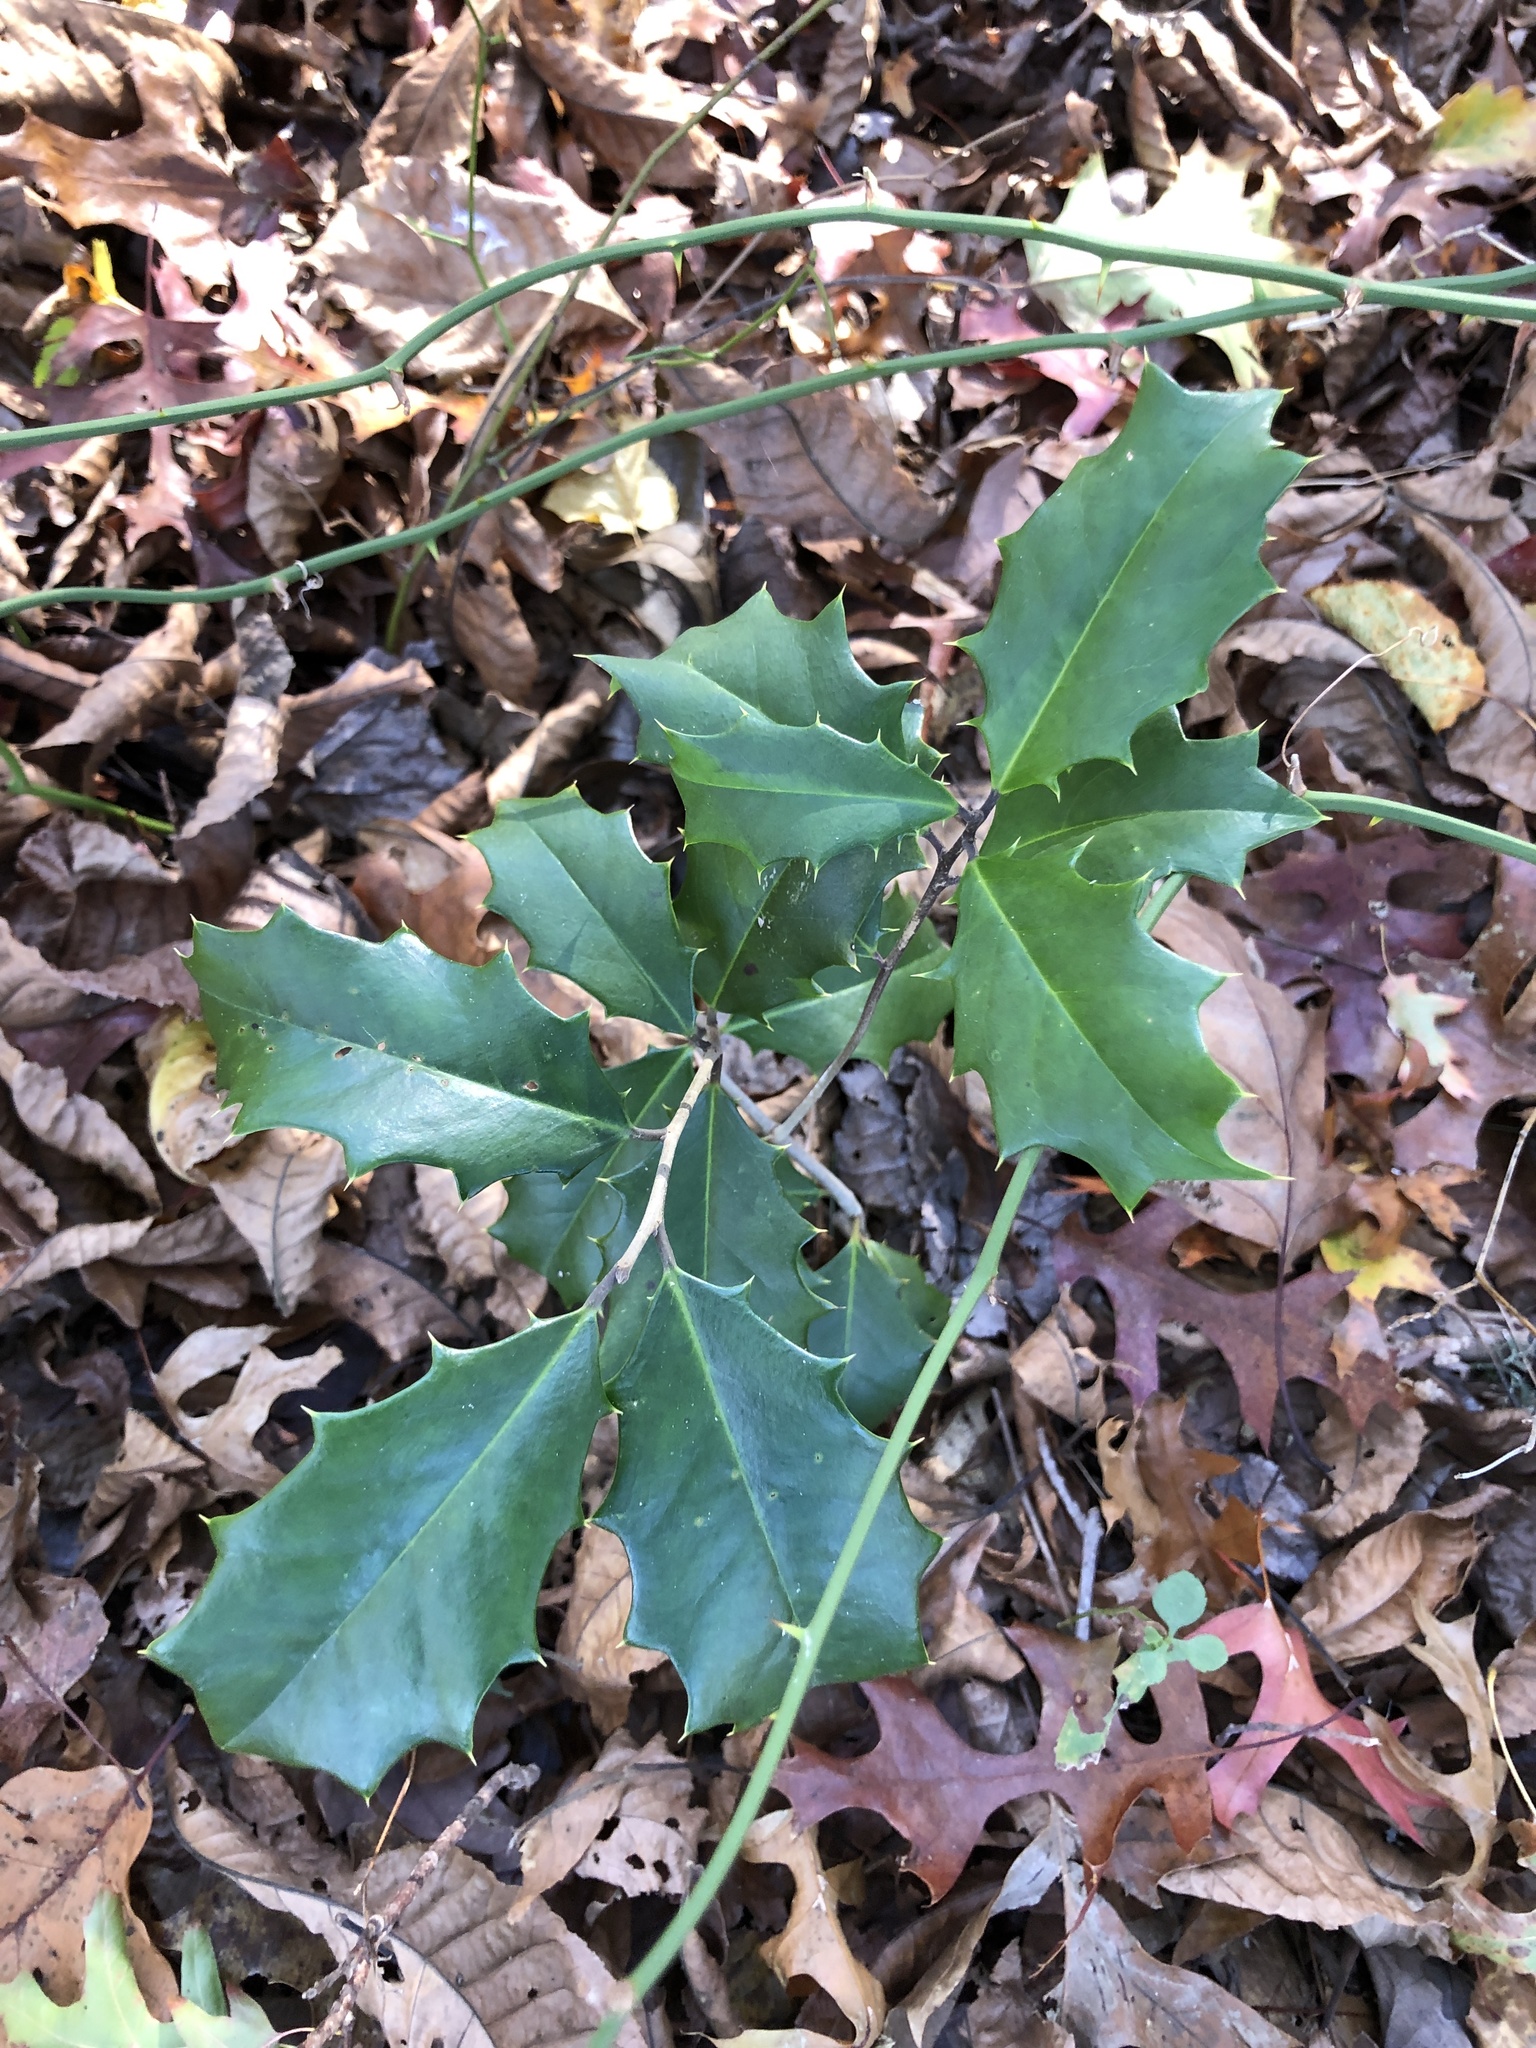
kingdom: Plantae
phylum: Tracheophyta
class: Magnoliopsida
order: Aquifoliales
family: Aquifoliaceae
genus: Ilex
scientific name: Ilex opaca
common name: American holly
